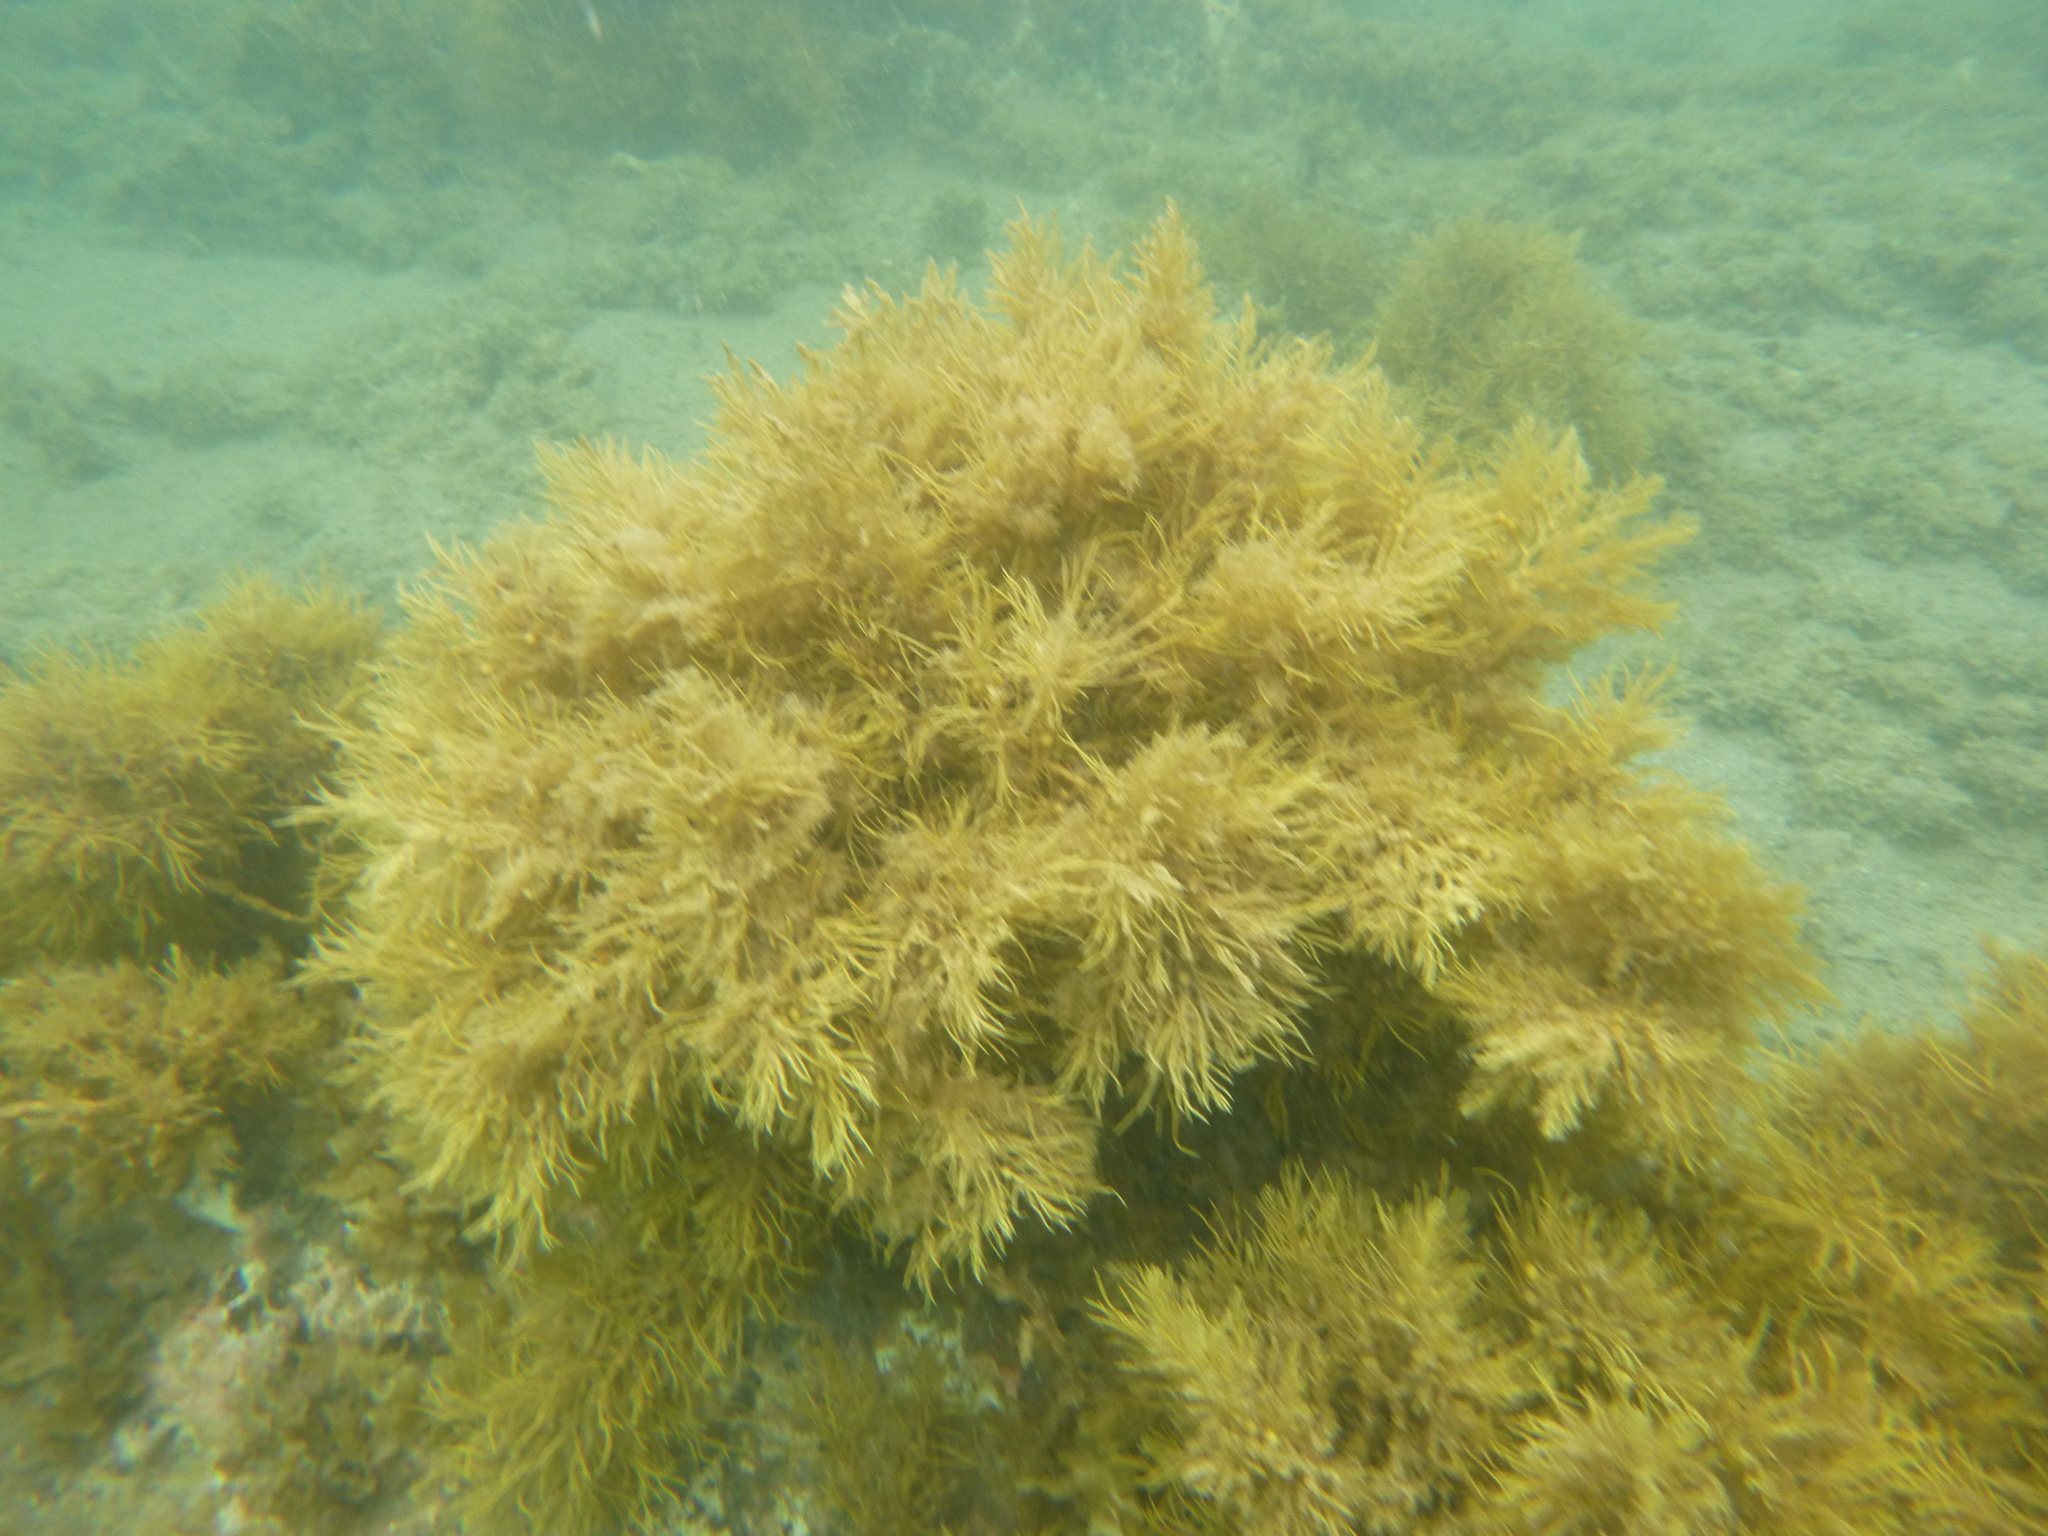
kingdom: Chromista
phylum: Ochrophyta
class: Phaeophyceae
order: Fucales
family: Sargassaceae
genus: Cystophora
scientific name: Cystophora retroflexa
